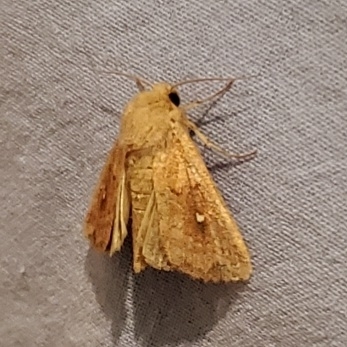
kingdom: Animalia
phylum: Arthropoda
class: Insecta
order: Lepidoptera
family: Noctuidae
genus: Mythimna
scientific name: Mythimna albipuncta
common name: White-point
